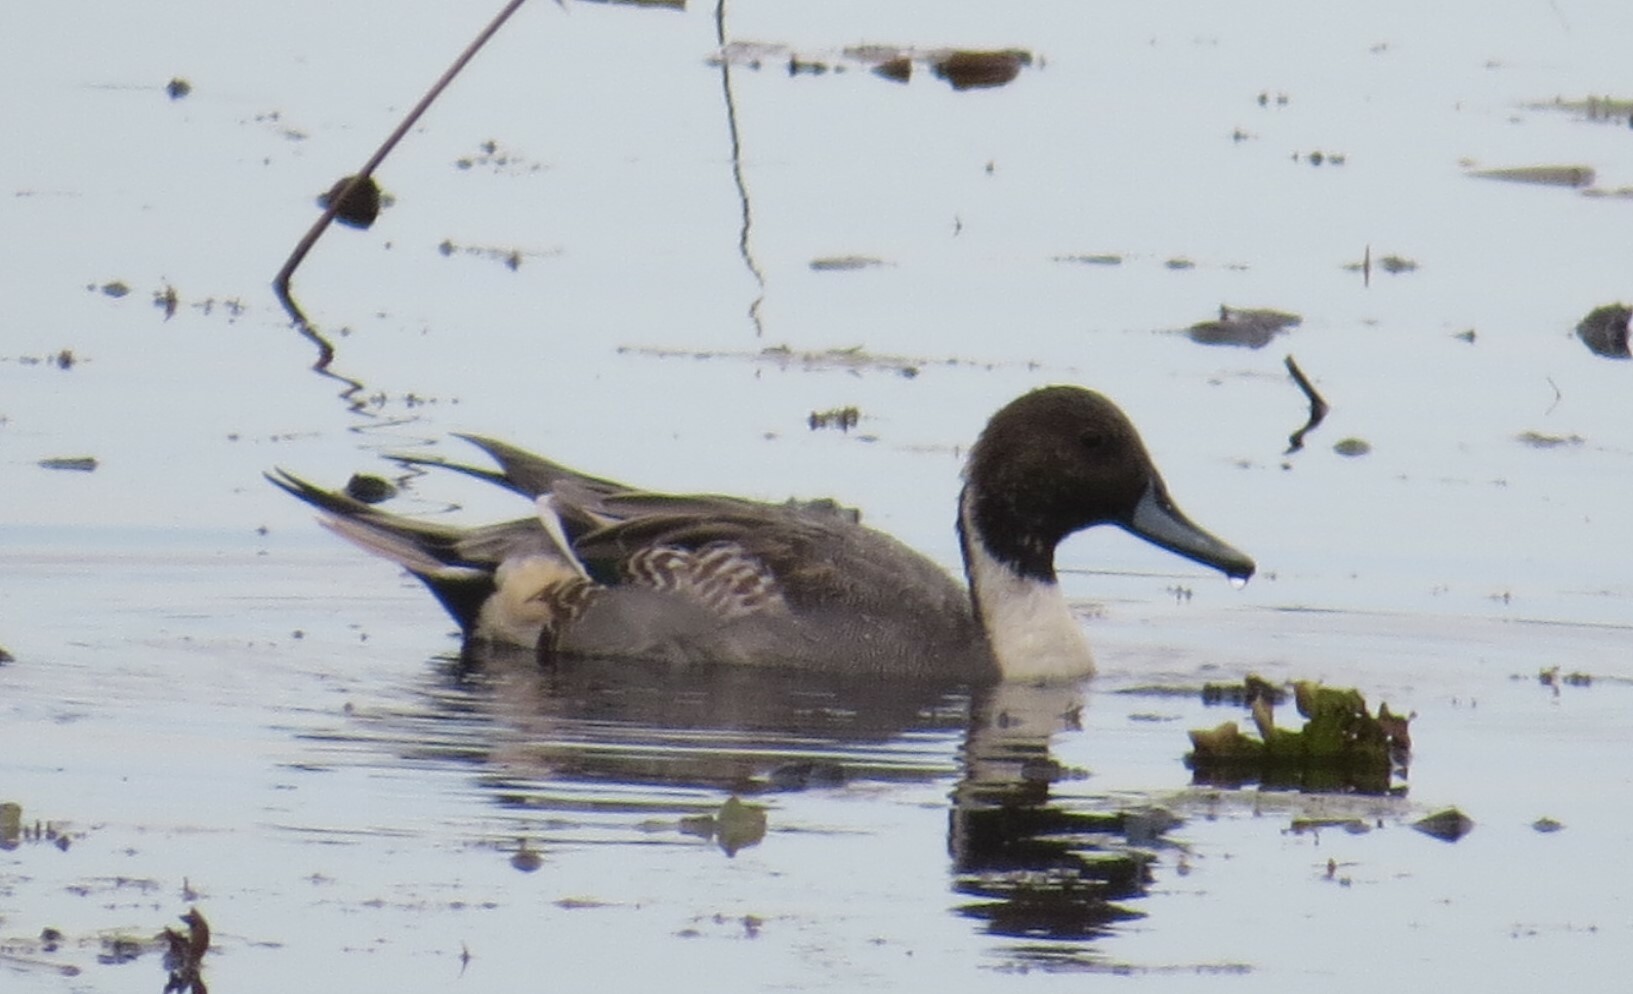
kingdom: Animalia
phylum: Chordata
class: Aves
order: Anseriformes
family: Anatidae
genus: Anas
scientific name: Anas acuta
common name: Northern pintail
